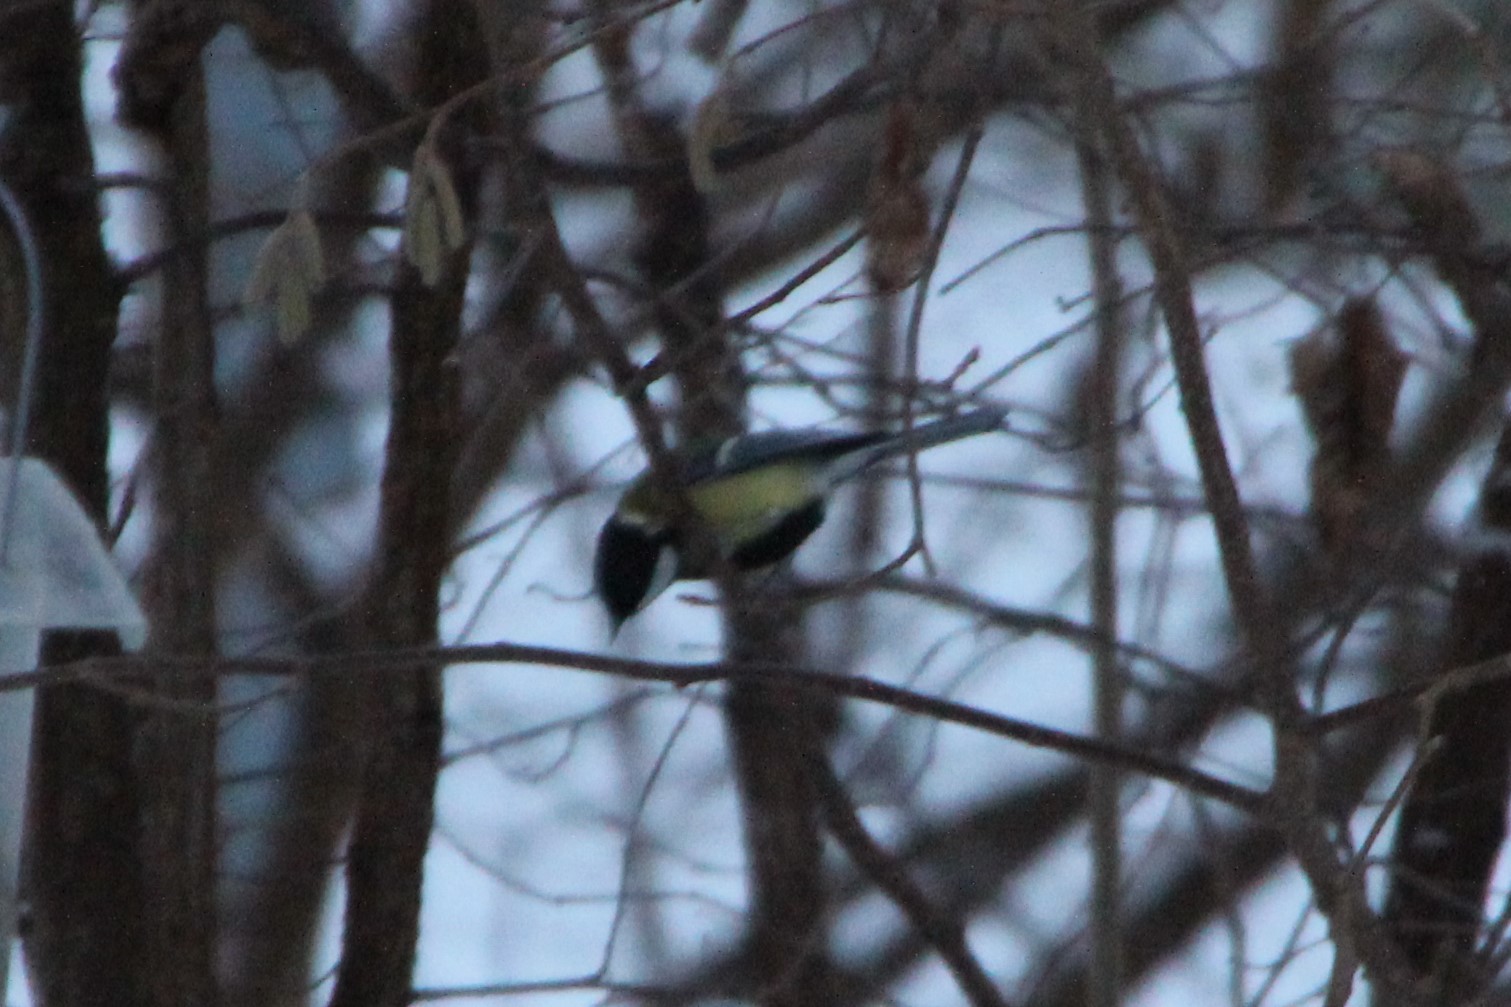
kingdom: Animalia
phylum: Chordata
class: Aves
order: Passeriformes
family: Paridae
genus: Parus
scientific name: Parus major
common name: Great tit
